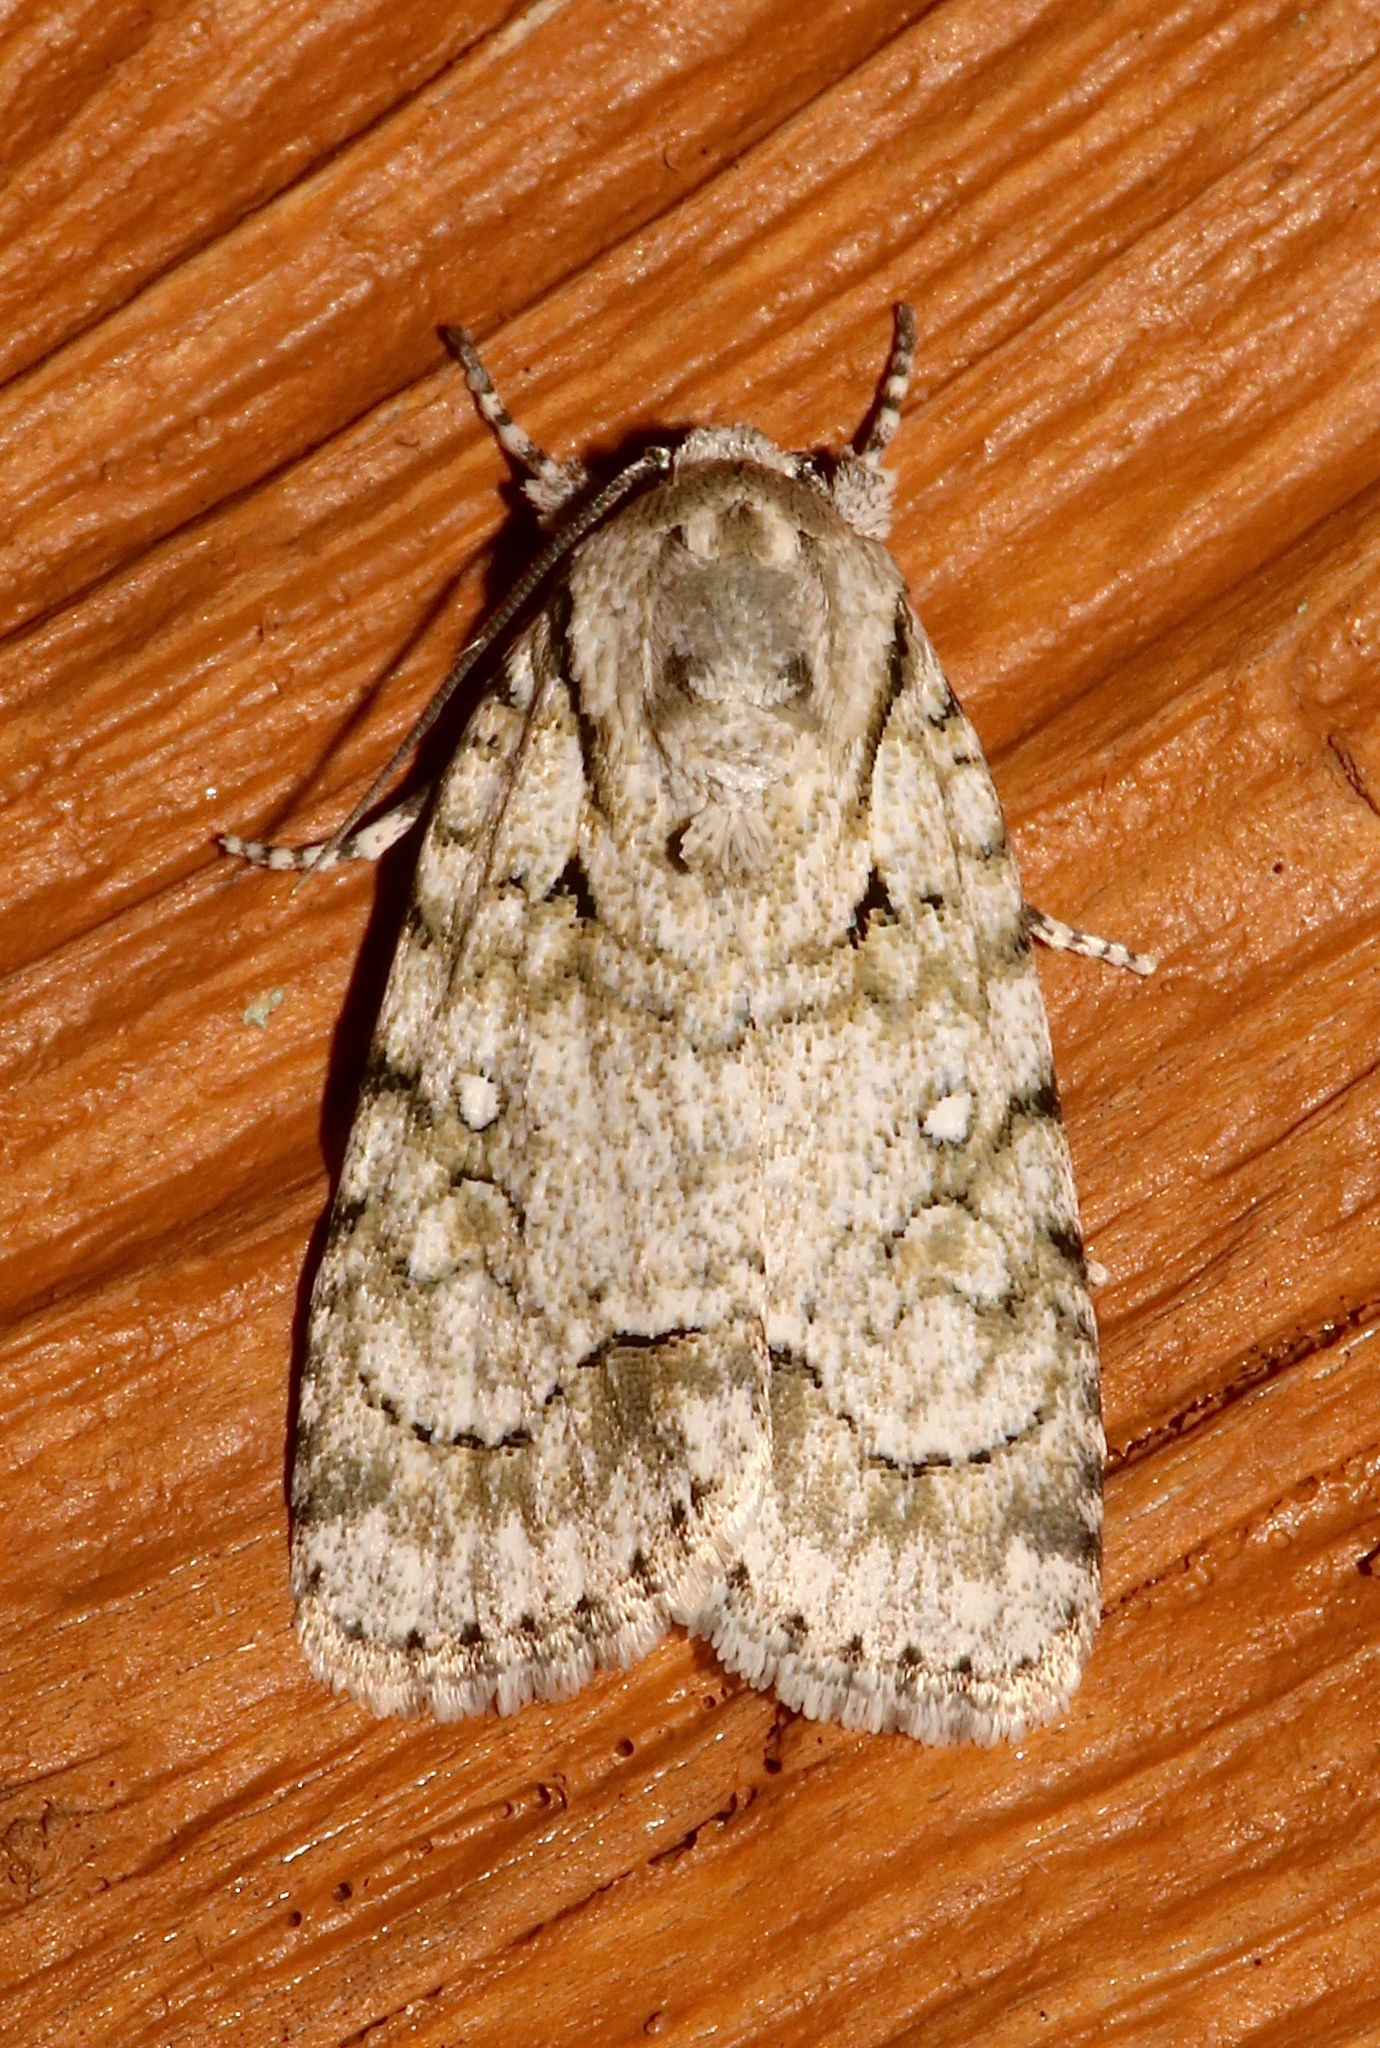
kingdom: Animalia
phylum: Arthropoda
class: Insecta
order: Lepidoptera
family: Noctuidae
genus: Acronicta
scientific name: Acronicta vinnula
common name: Delightful dagger
